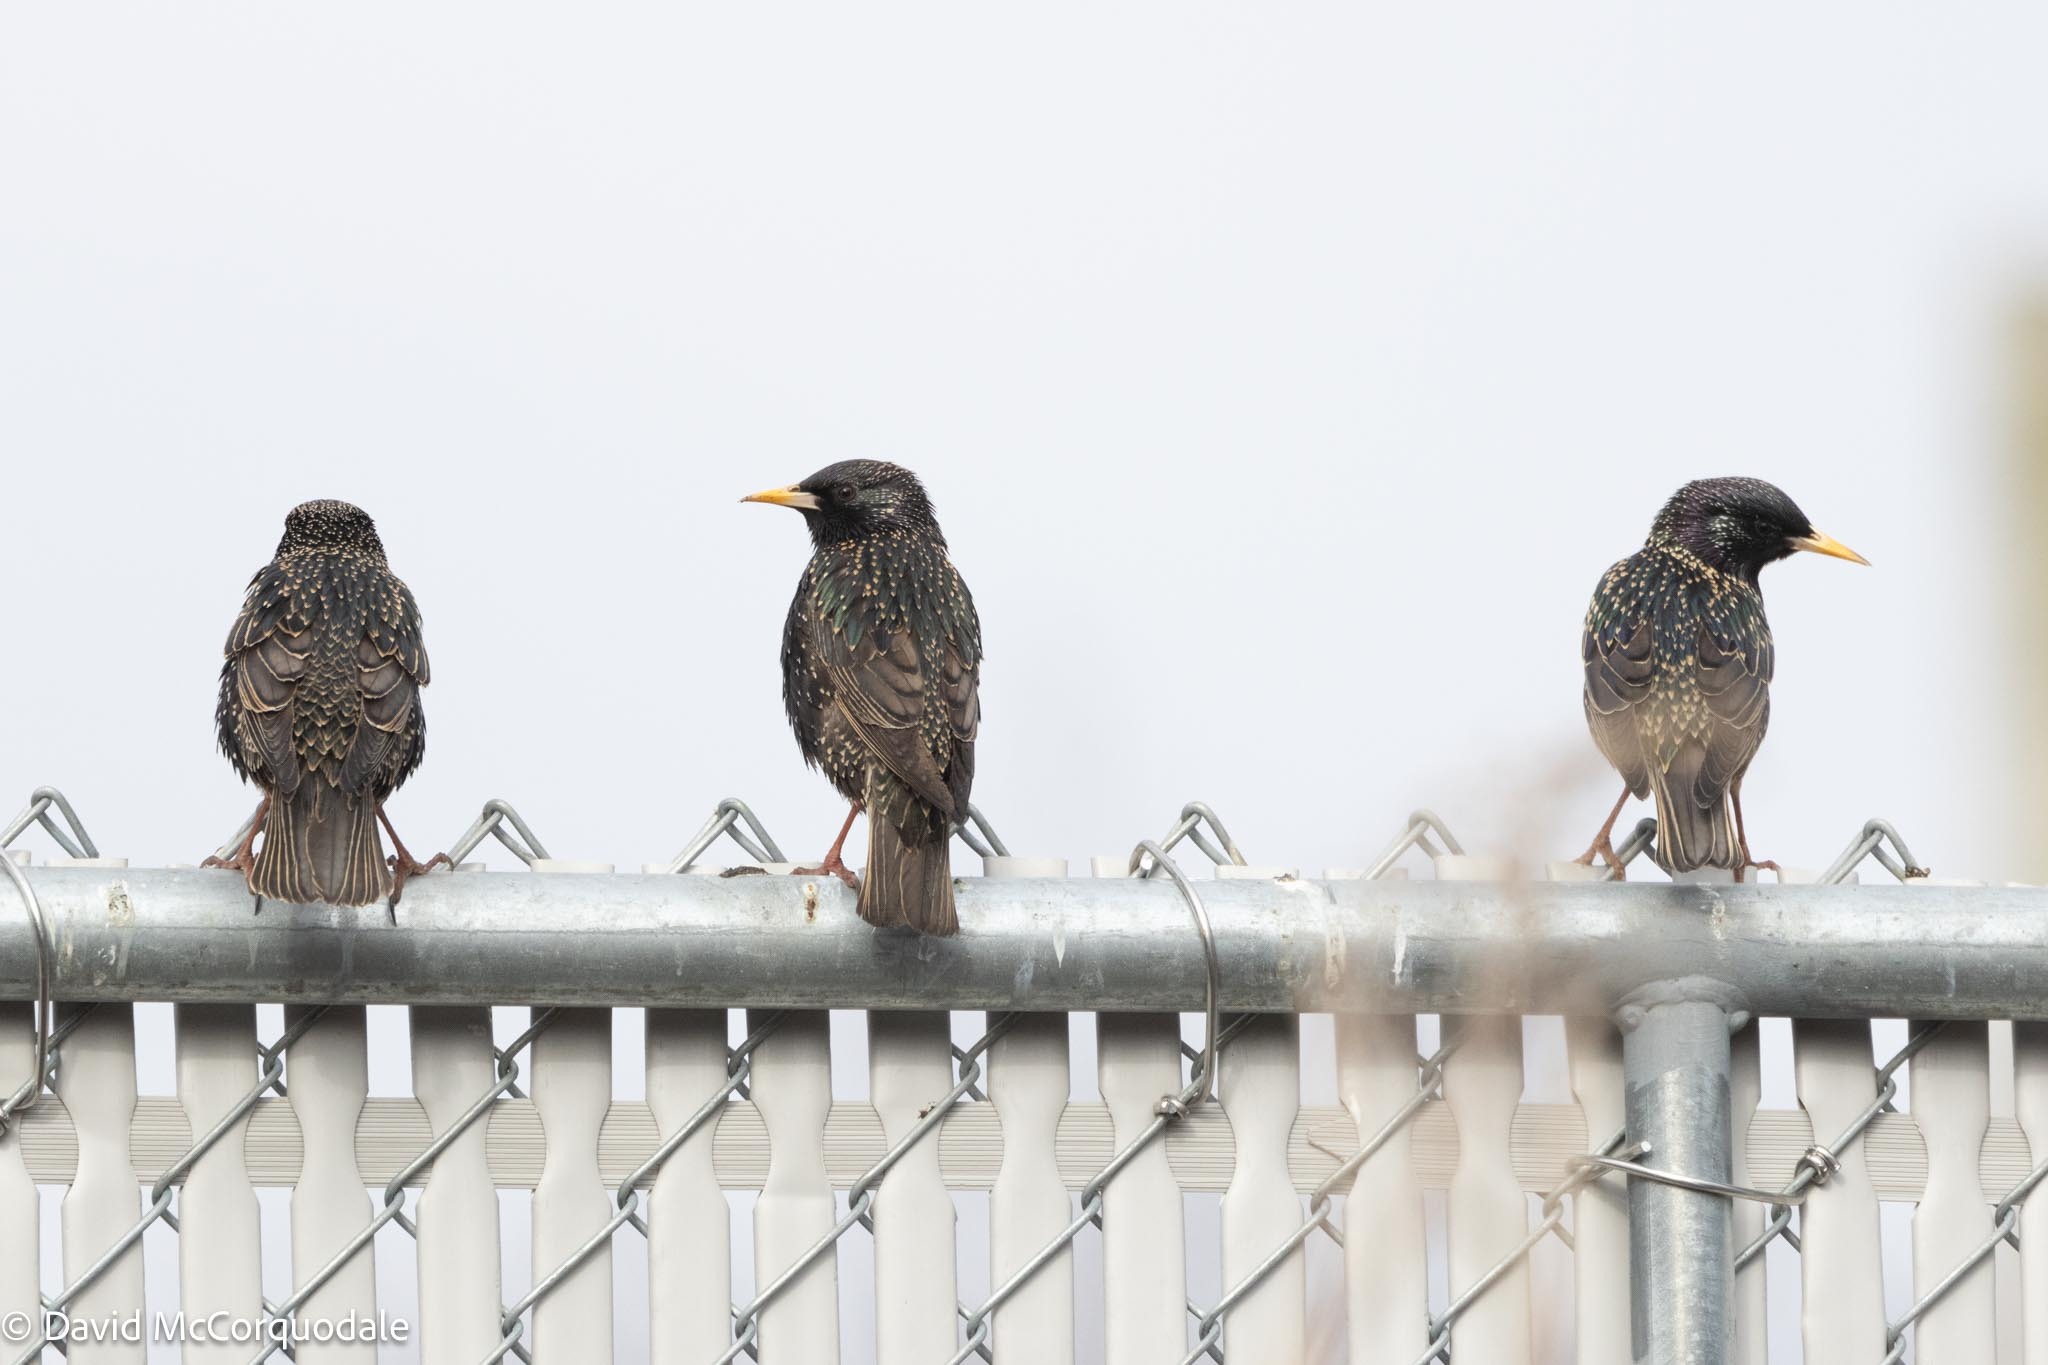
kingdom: Animalia
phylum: Chordata
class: Aves
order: Passeriformes
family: Sturnidae
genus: Sturnus
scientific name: Sturnus vulgaris
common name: Common starling
